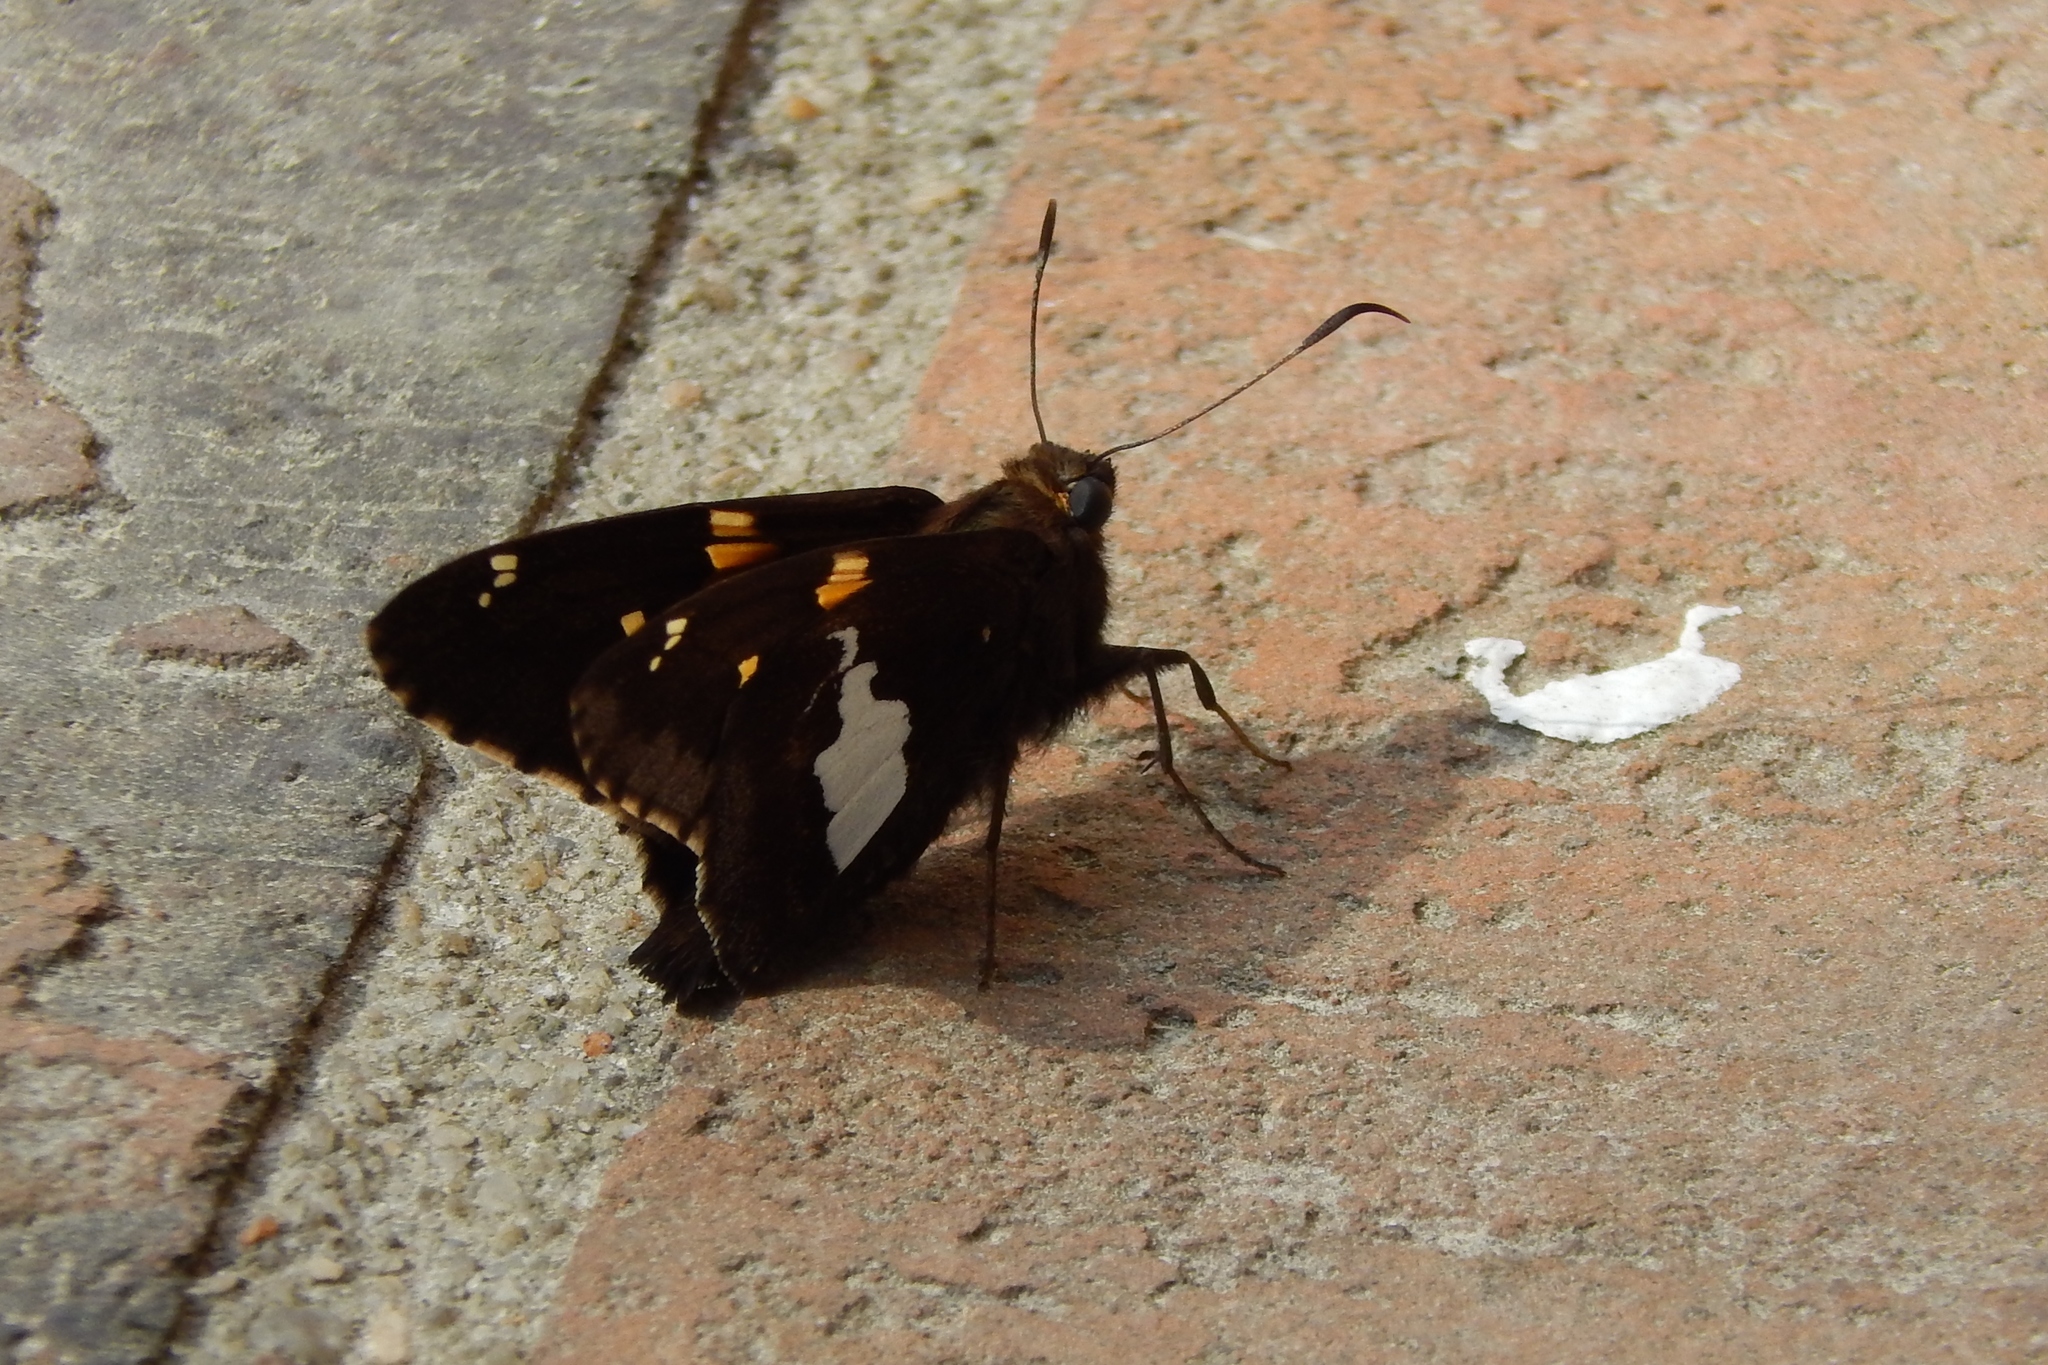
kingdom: Animalia
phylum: Arthropoda
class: Insecta
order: Lepidoptera
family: Hesperiidae
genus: Epargyreus
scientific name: Epargyreus clarus
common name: Silver-spotted skipper
